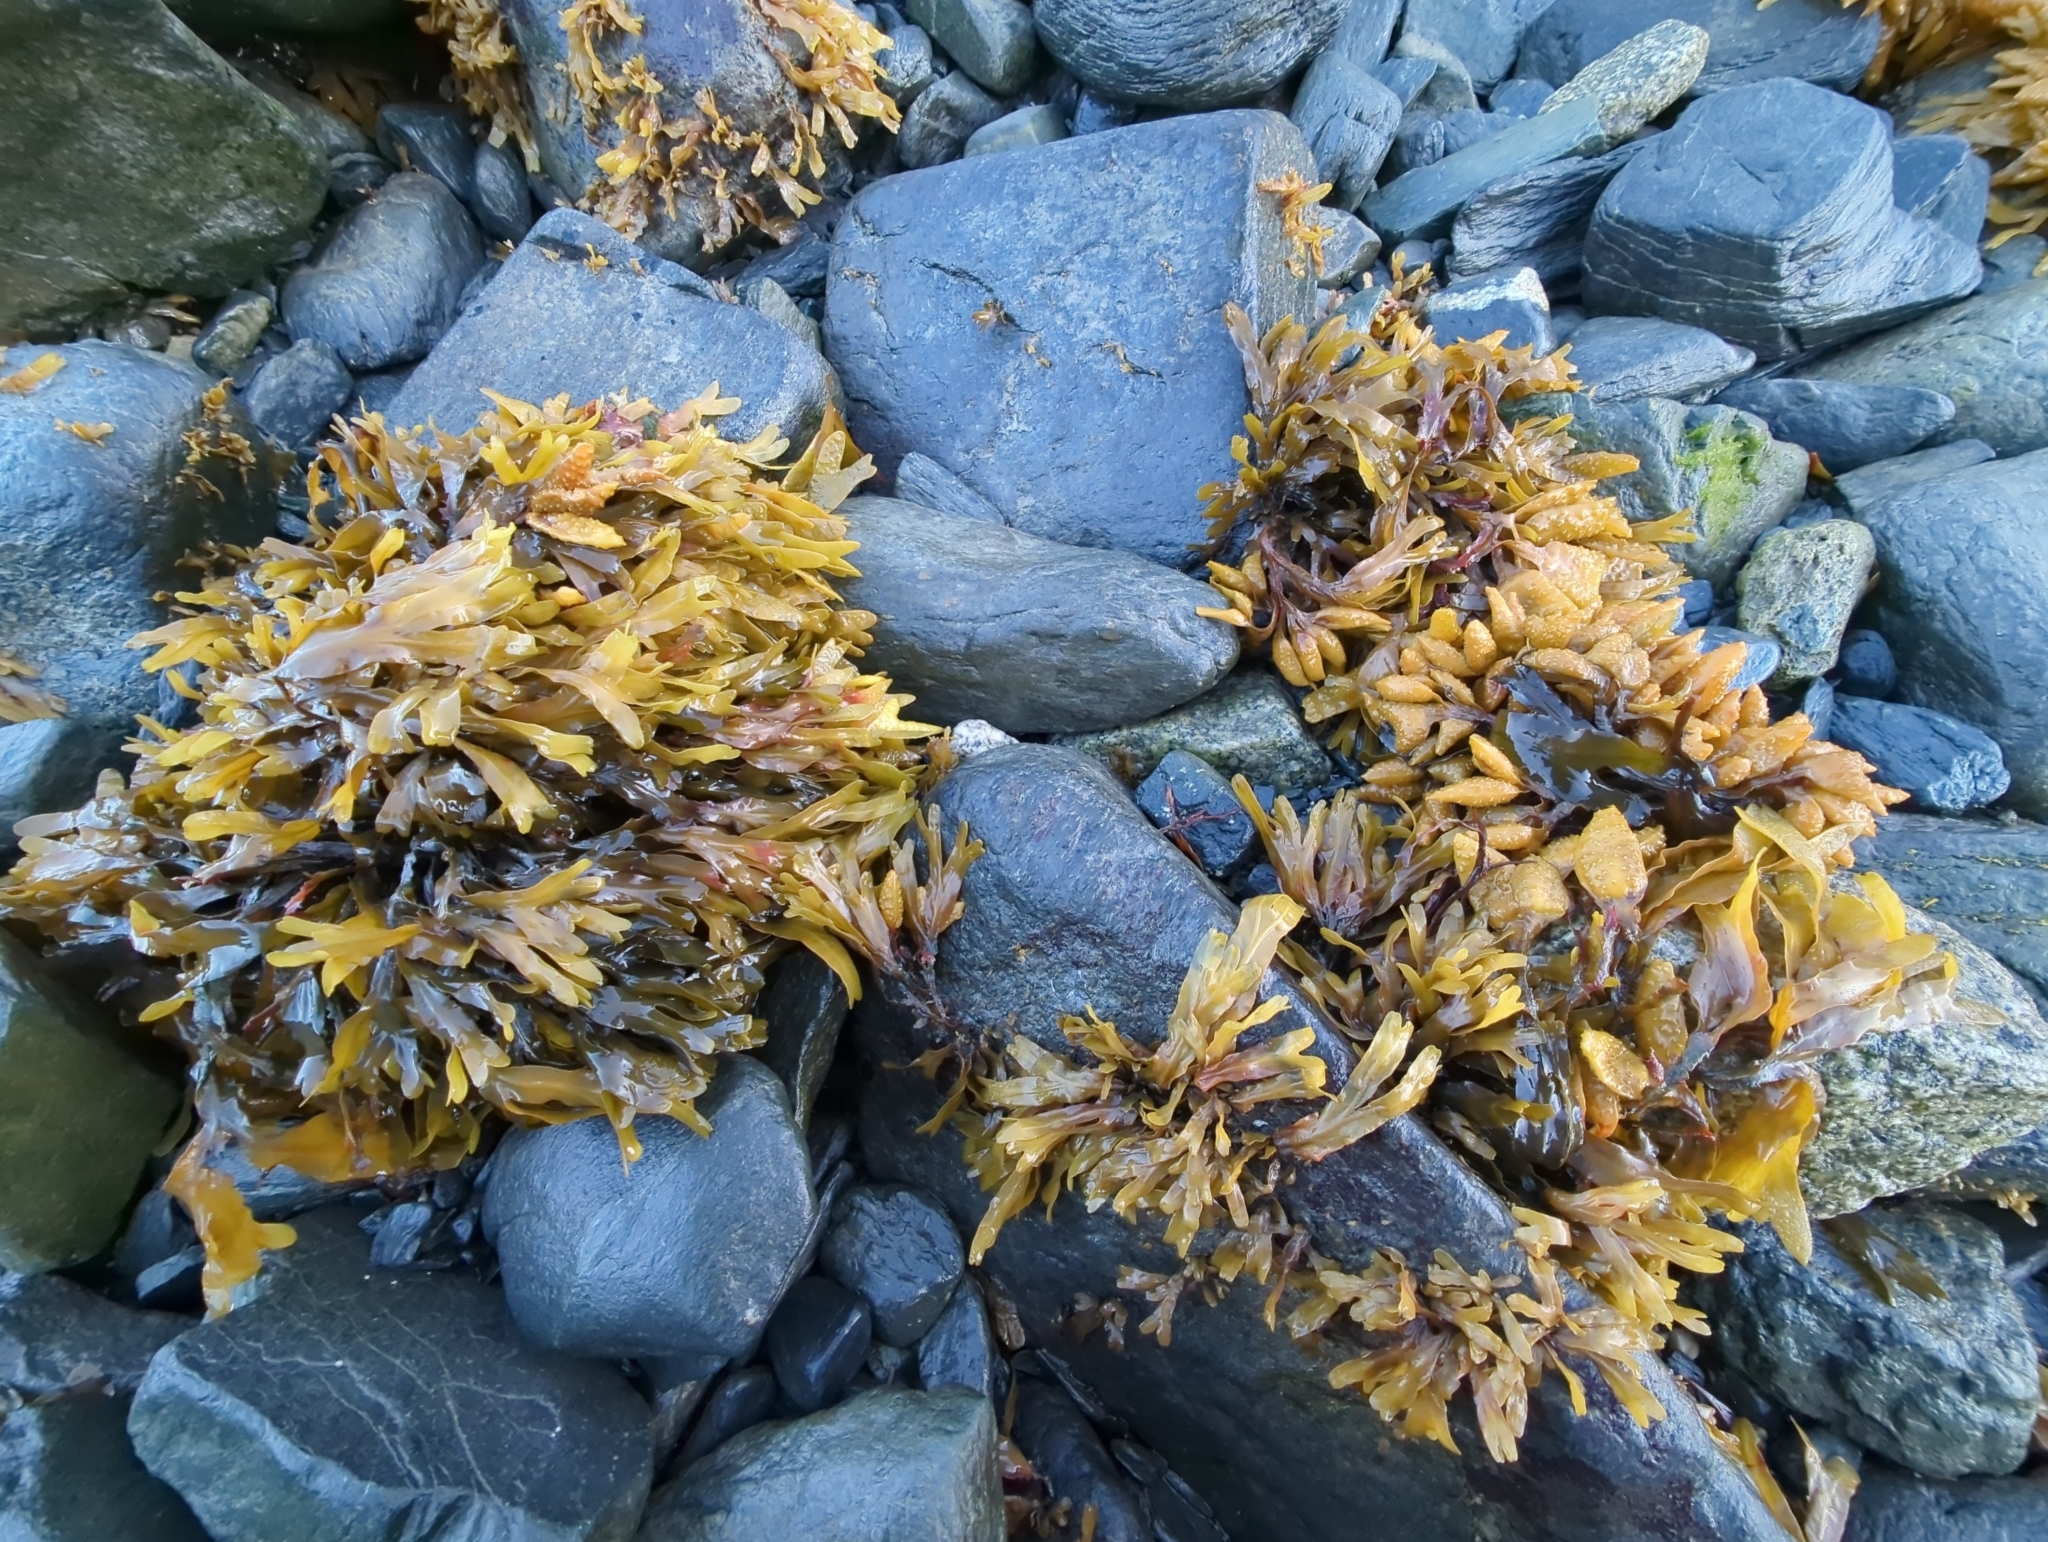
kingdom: Chromista
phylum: Ochrophyta
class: Phaeophyceae
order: Fucales
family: Fucaceae
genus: Fucus
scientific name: Fucus distichus
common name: Rockweed
